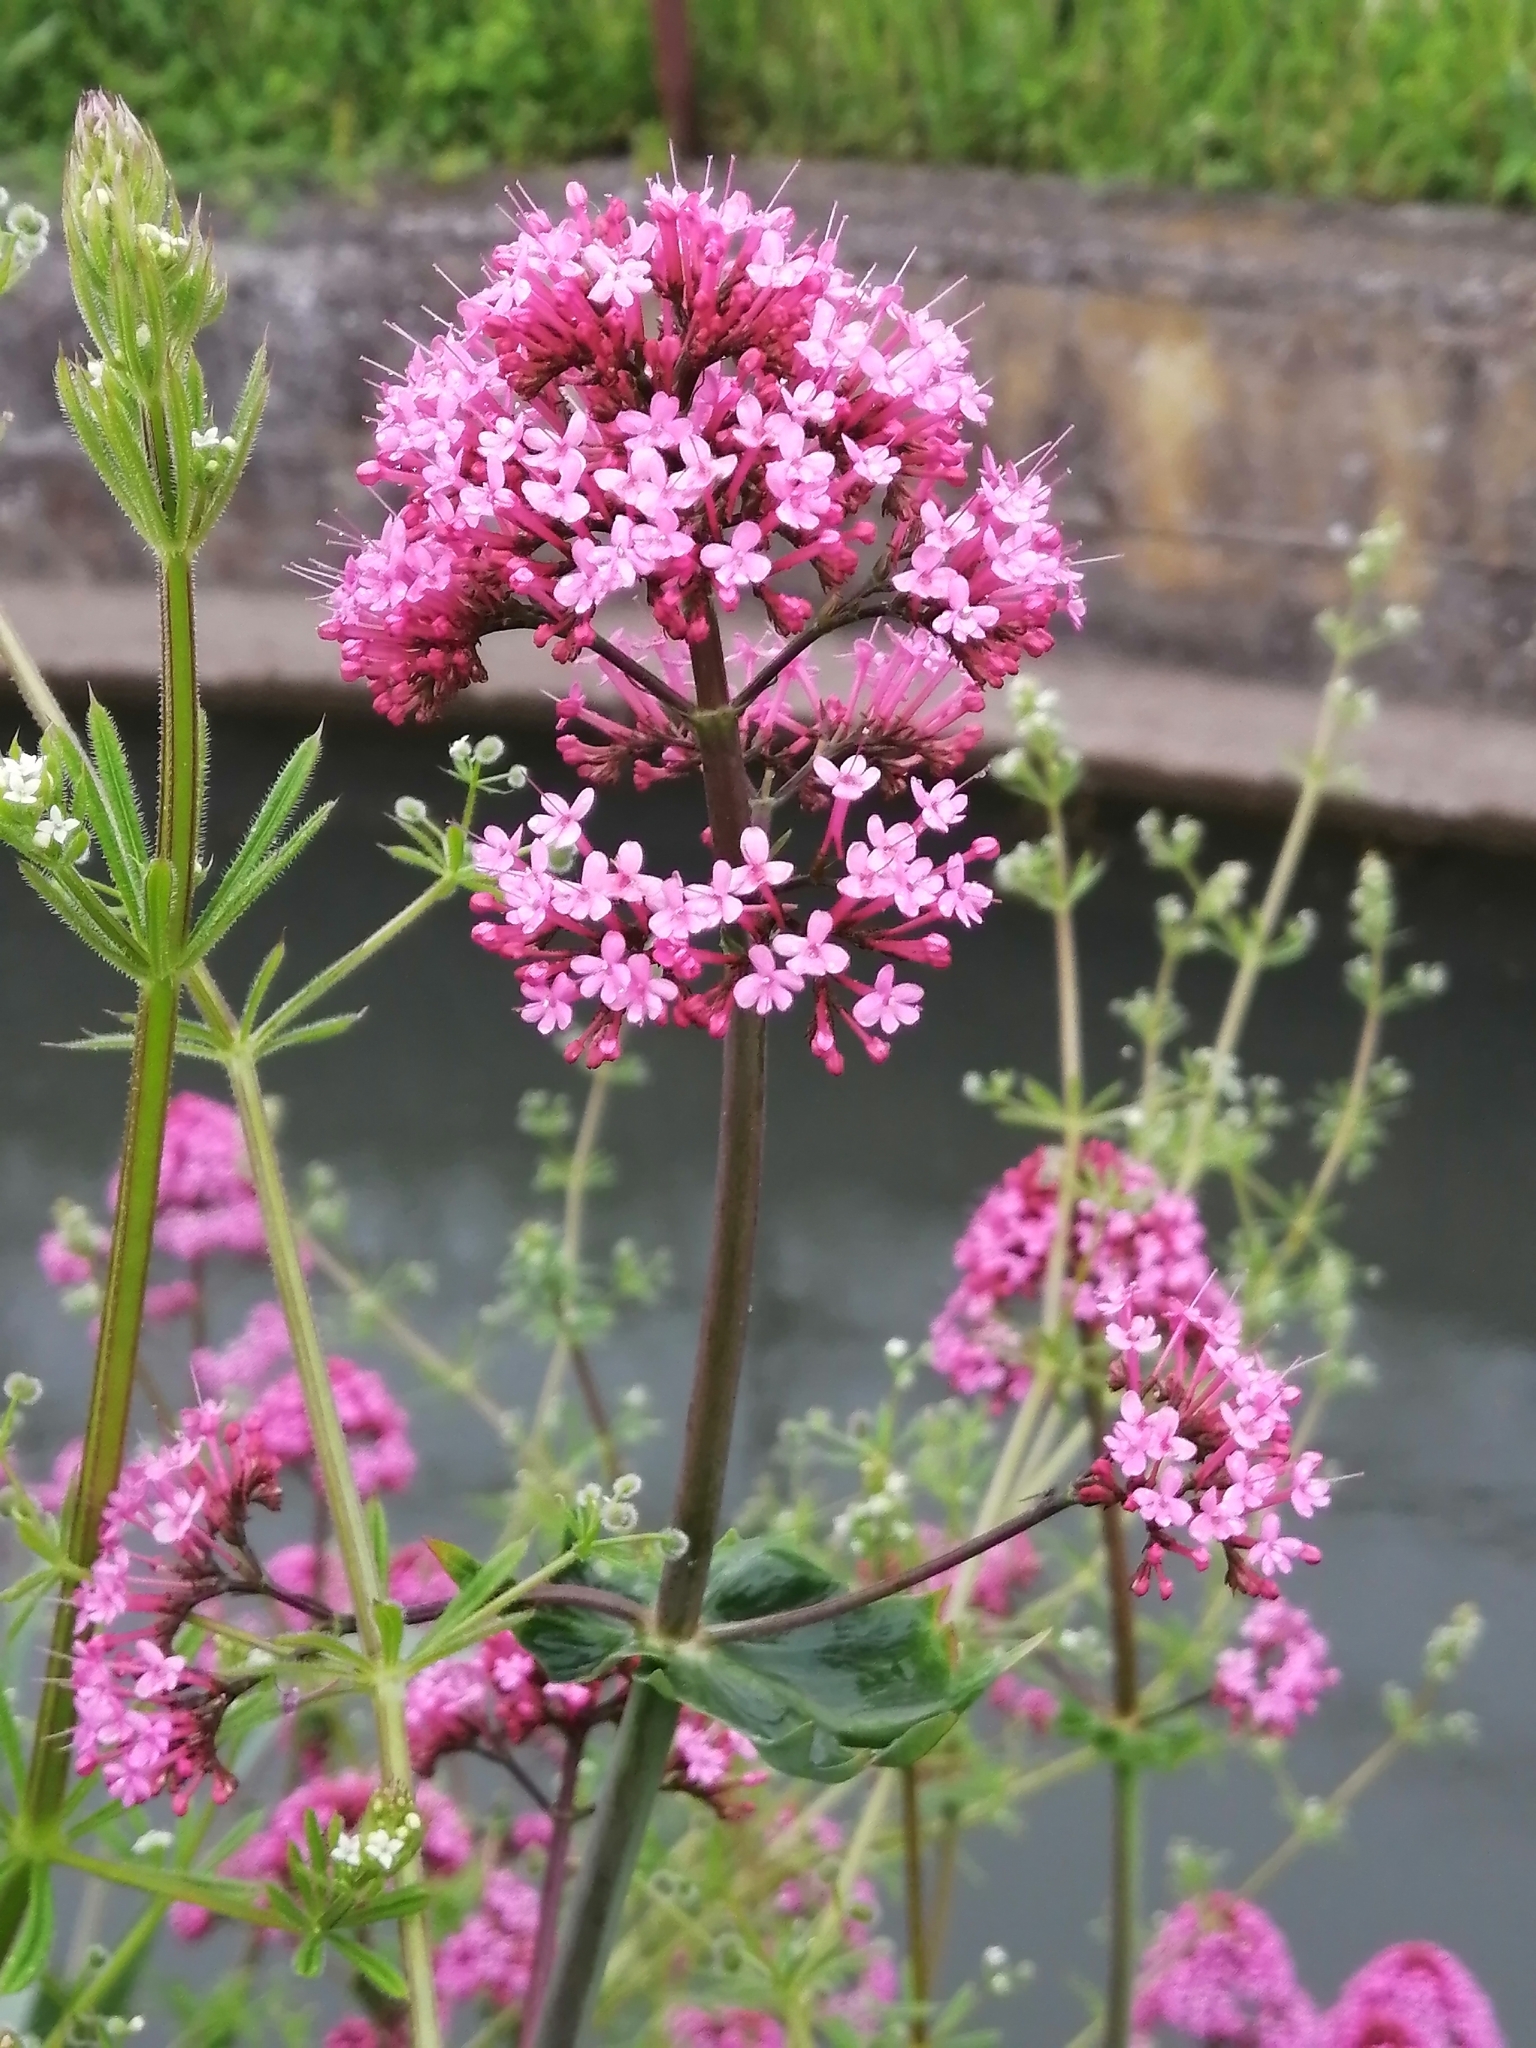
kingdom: Plantae
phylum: Tracheophyta
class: Magnoliopsida
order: Dipsacales
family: Caprifoliaceae
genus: Centranthus
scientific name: Centranthus ruber
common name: Red valerian
